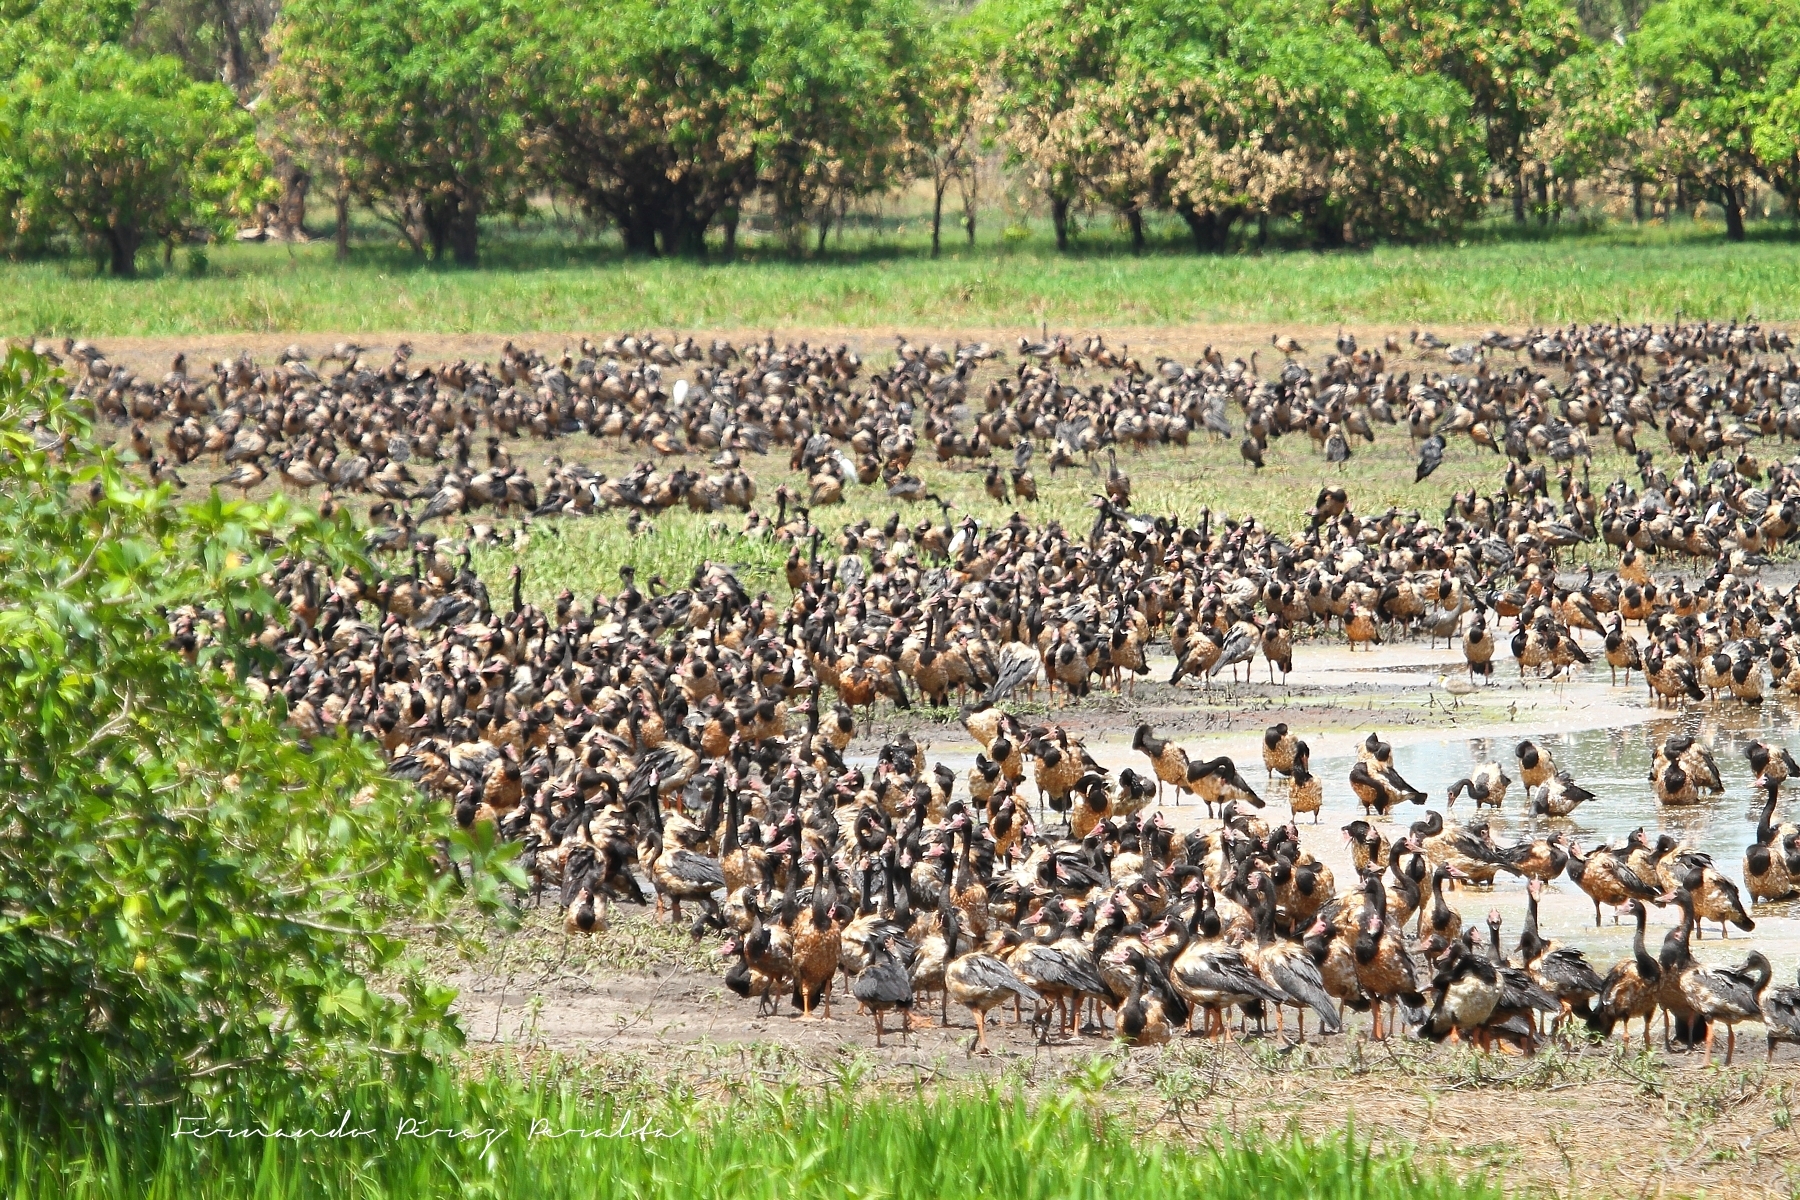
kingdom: Animalia
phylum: Chordata
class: Aves
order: Anseriformes
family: Anseranatidae
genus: Anseranas
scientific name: Anseranas semipalmata
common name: Magpie goose
